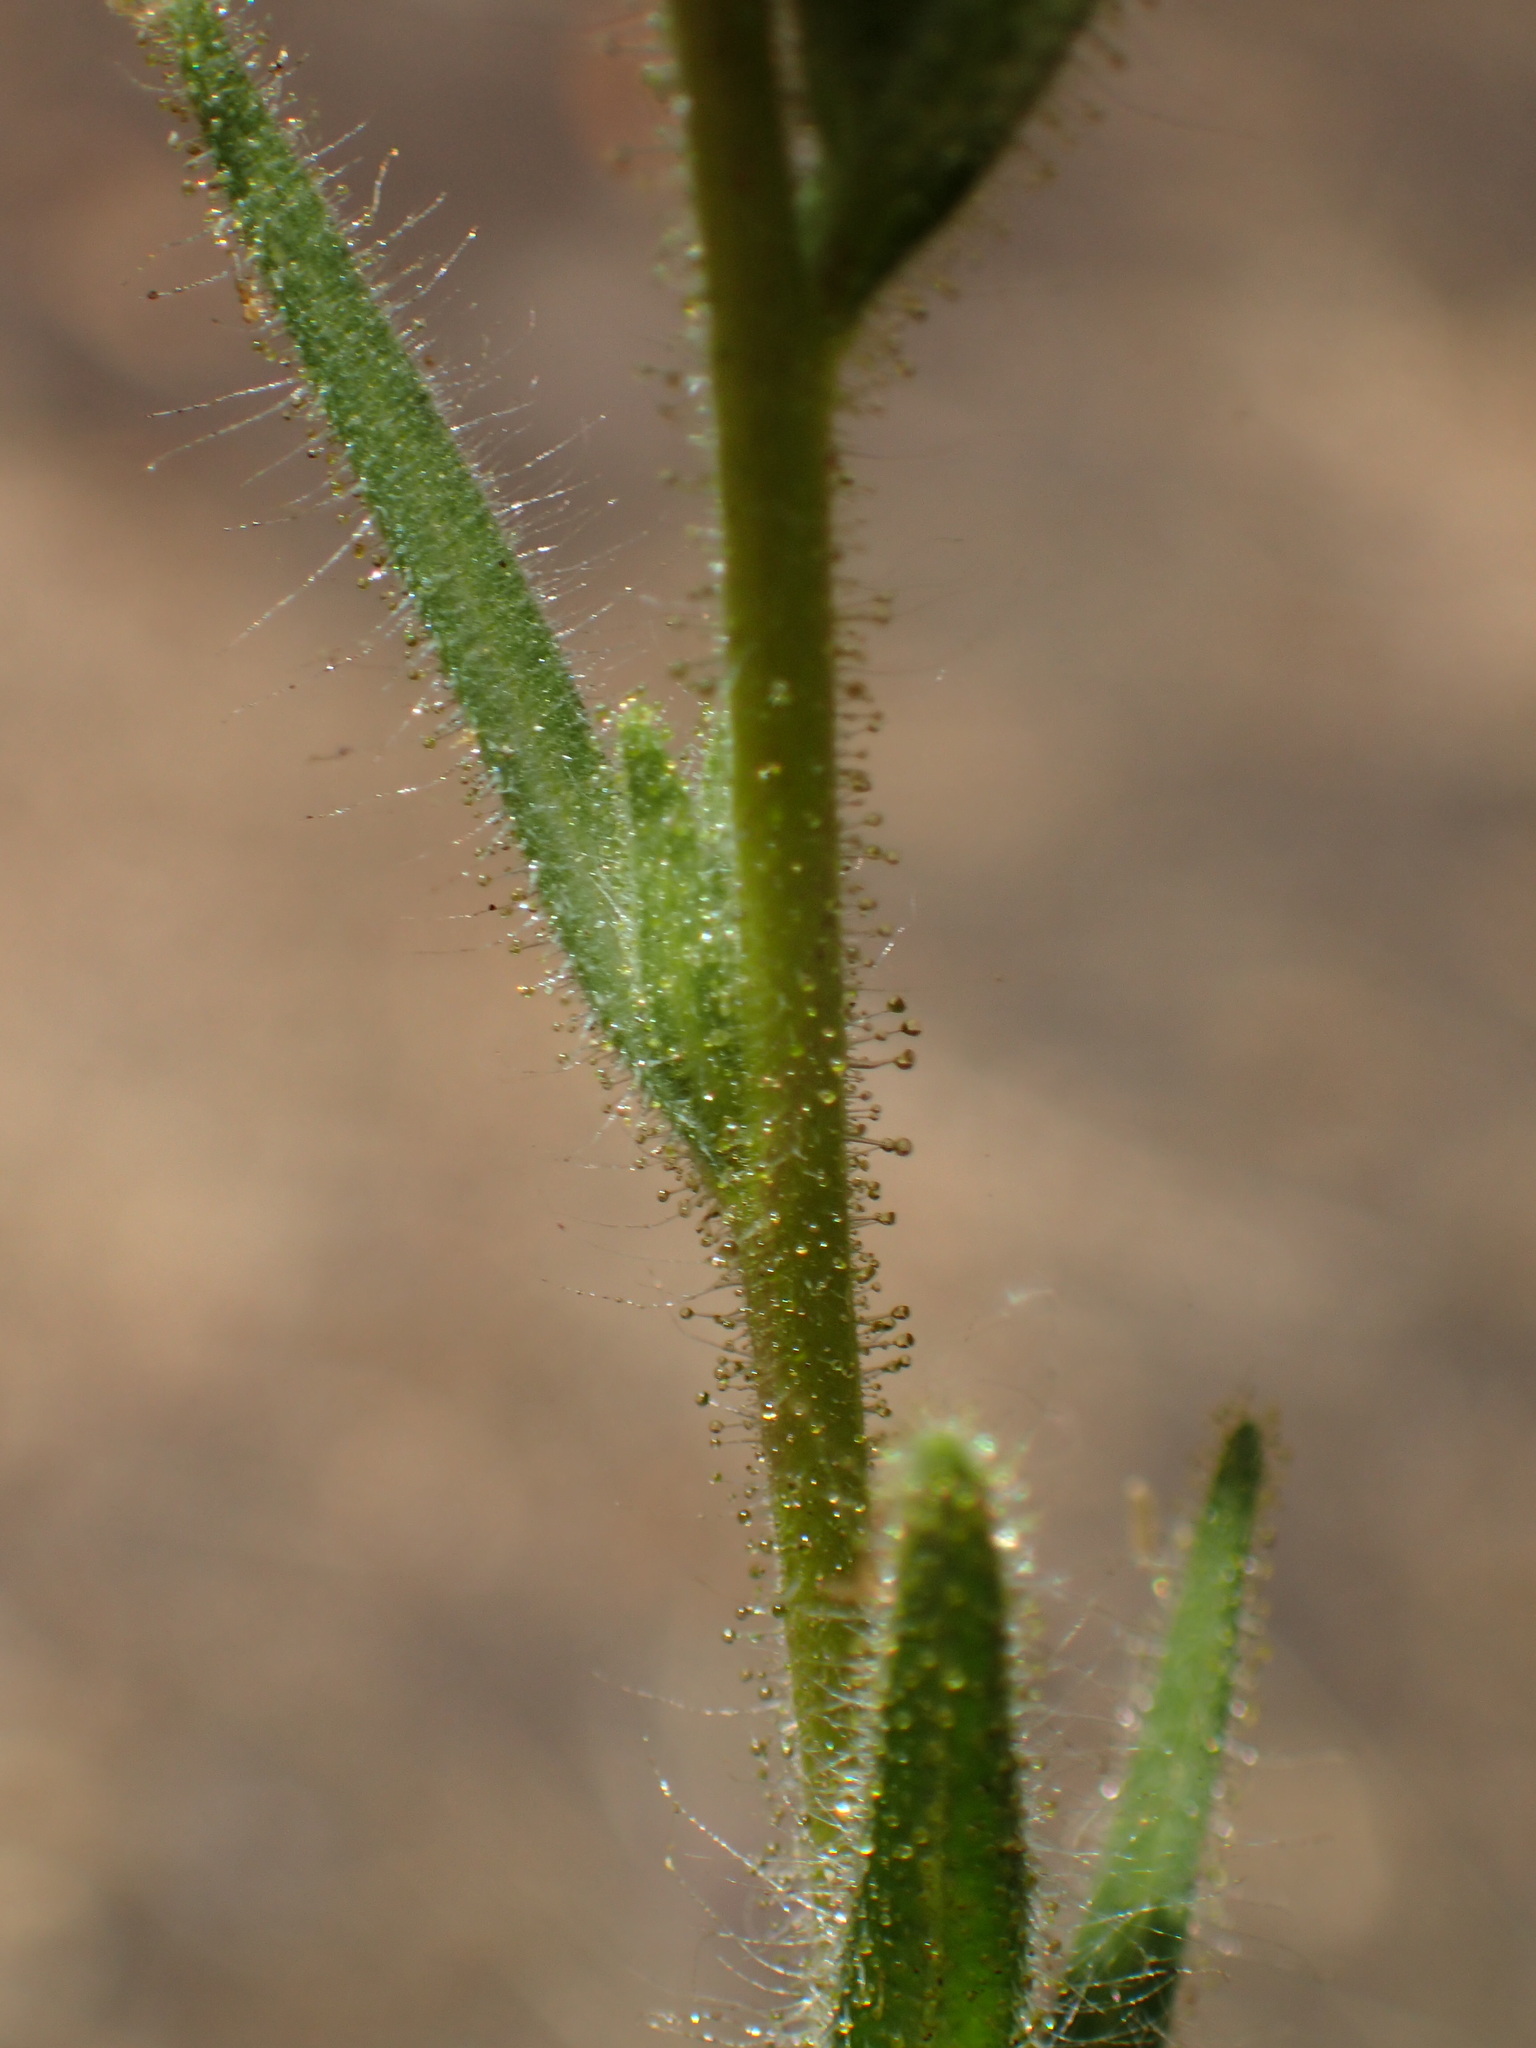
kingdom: Plantae
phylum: Tracheophyta
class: Magnoliopsida
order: Asterales
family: Asteraceae
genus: Madia
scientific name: Madia sativa
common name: Coast tarweed
